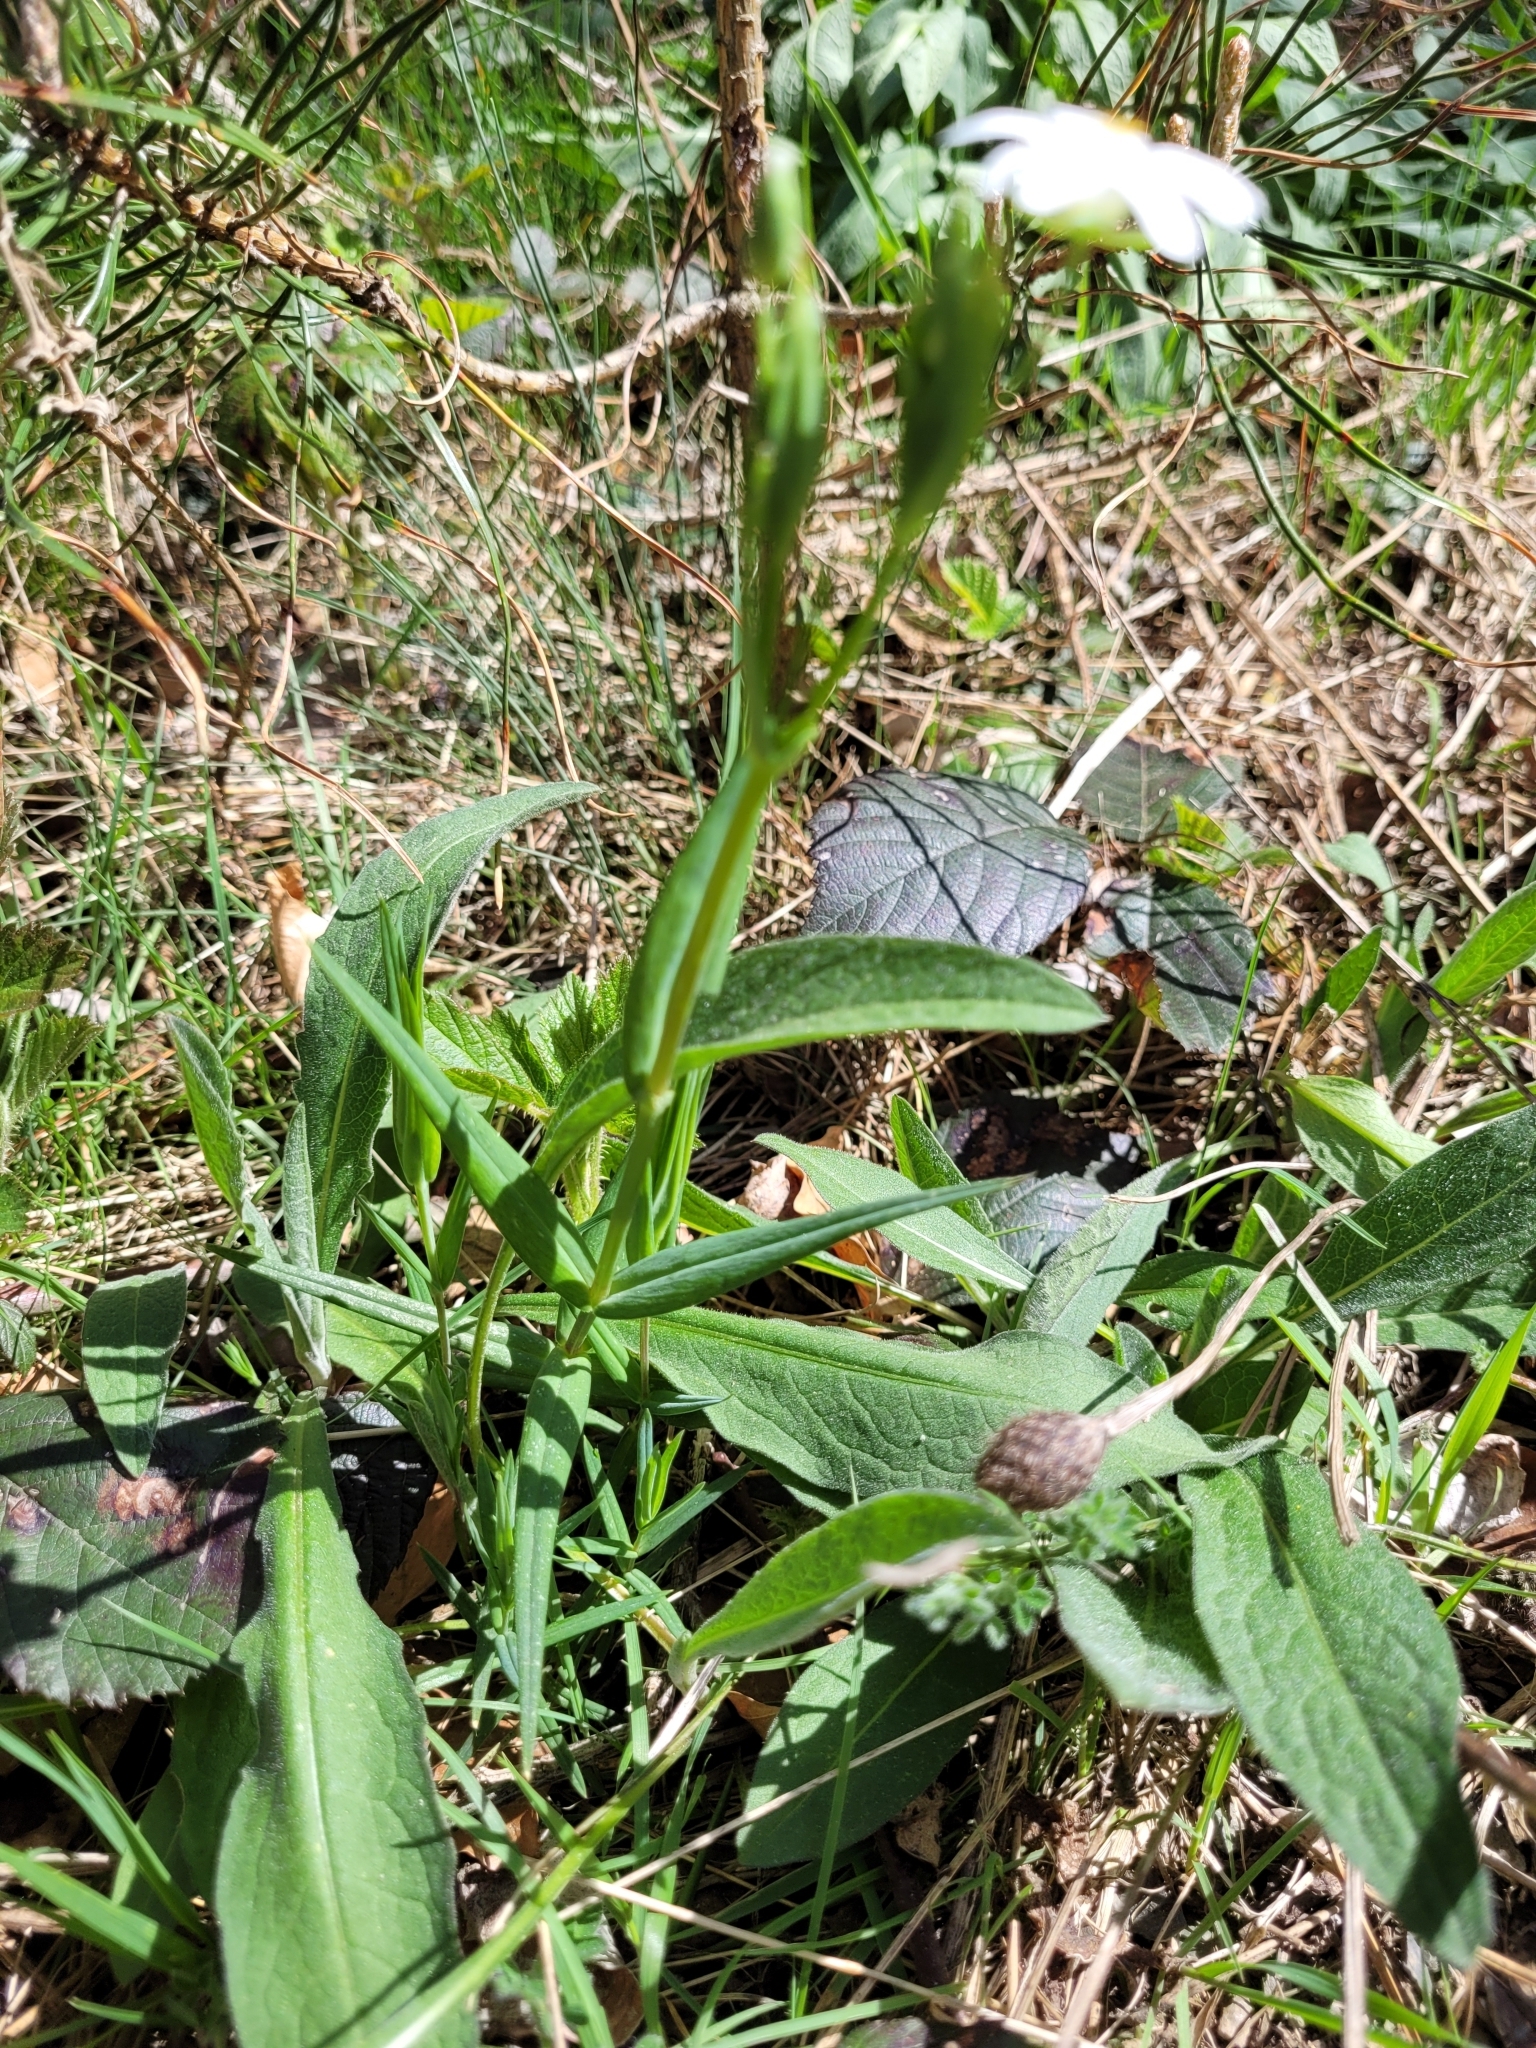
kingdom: Plantae
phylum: Tracheophyta
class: Magnoliopsida
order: Caryophyllales
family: Caryophyllaceae
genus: Rabelera
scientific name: Rabelera holostea
